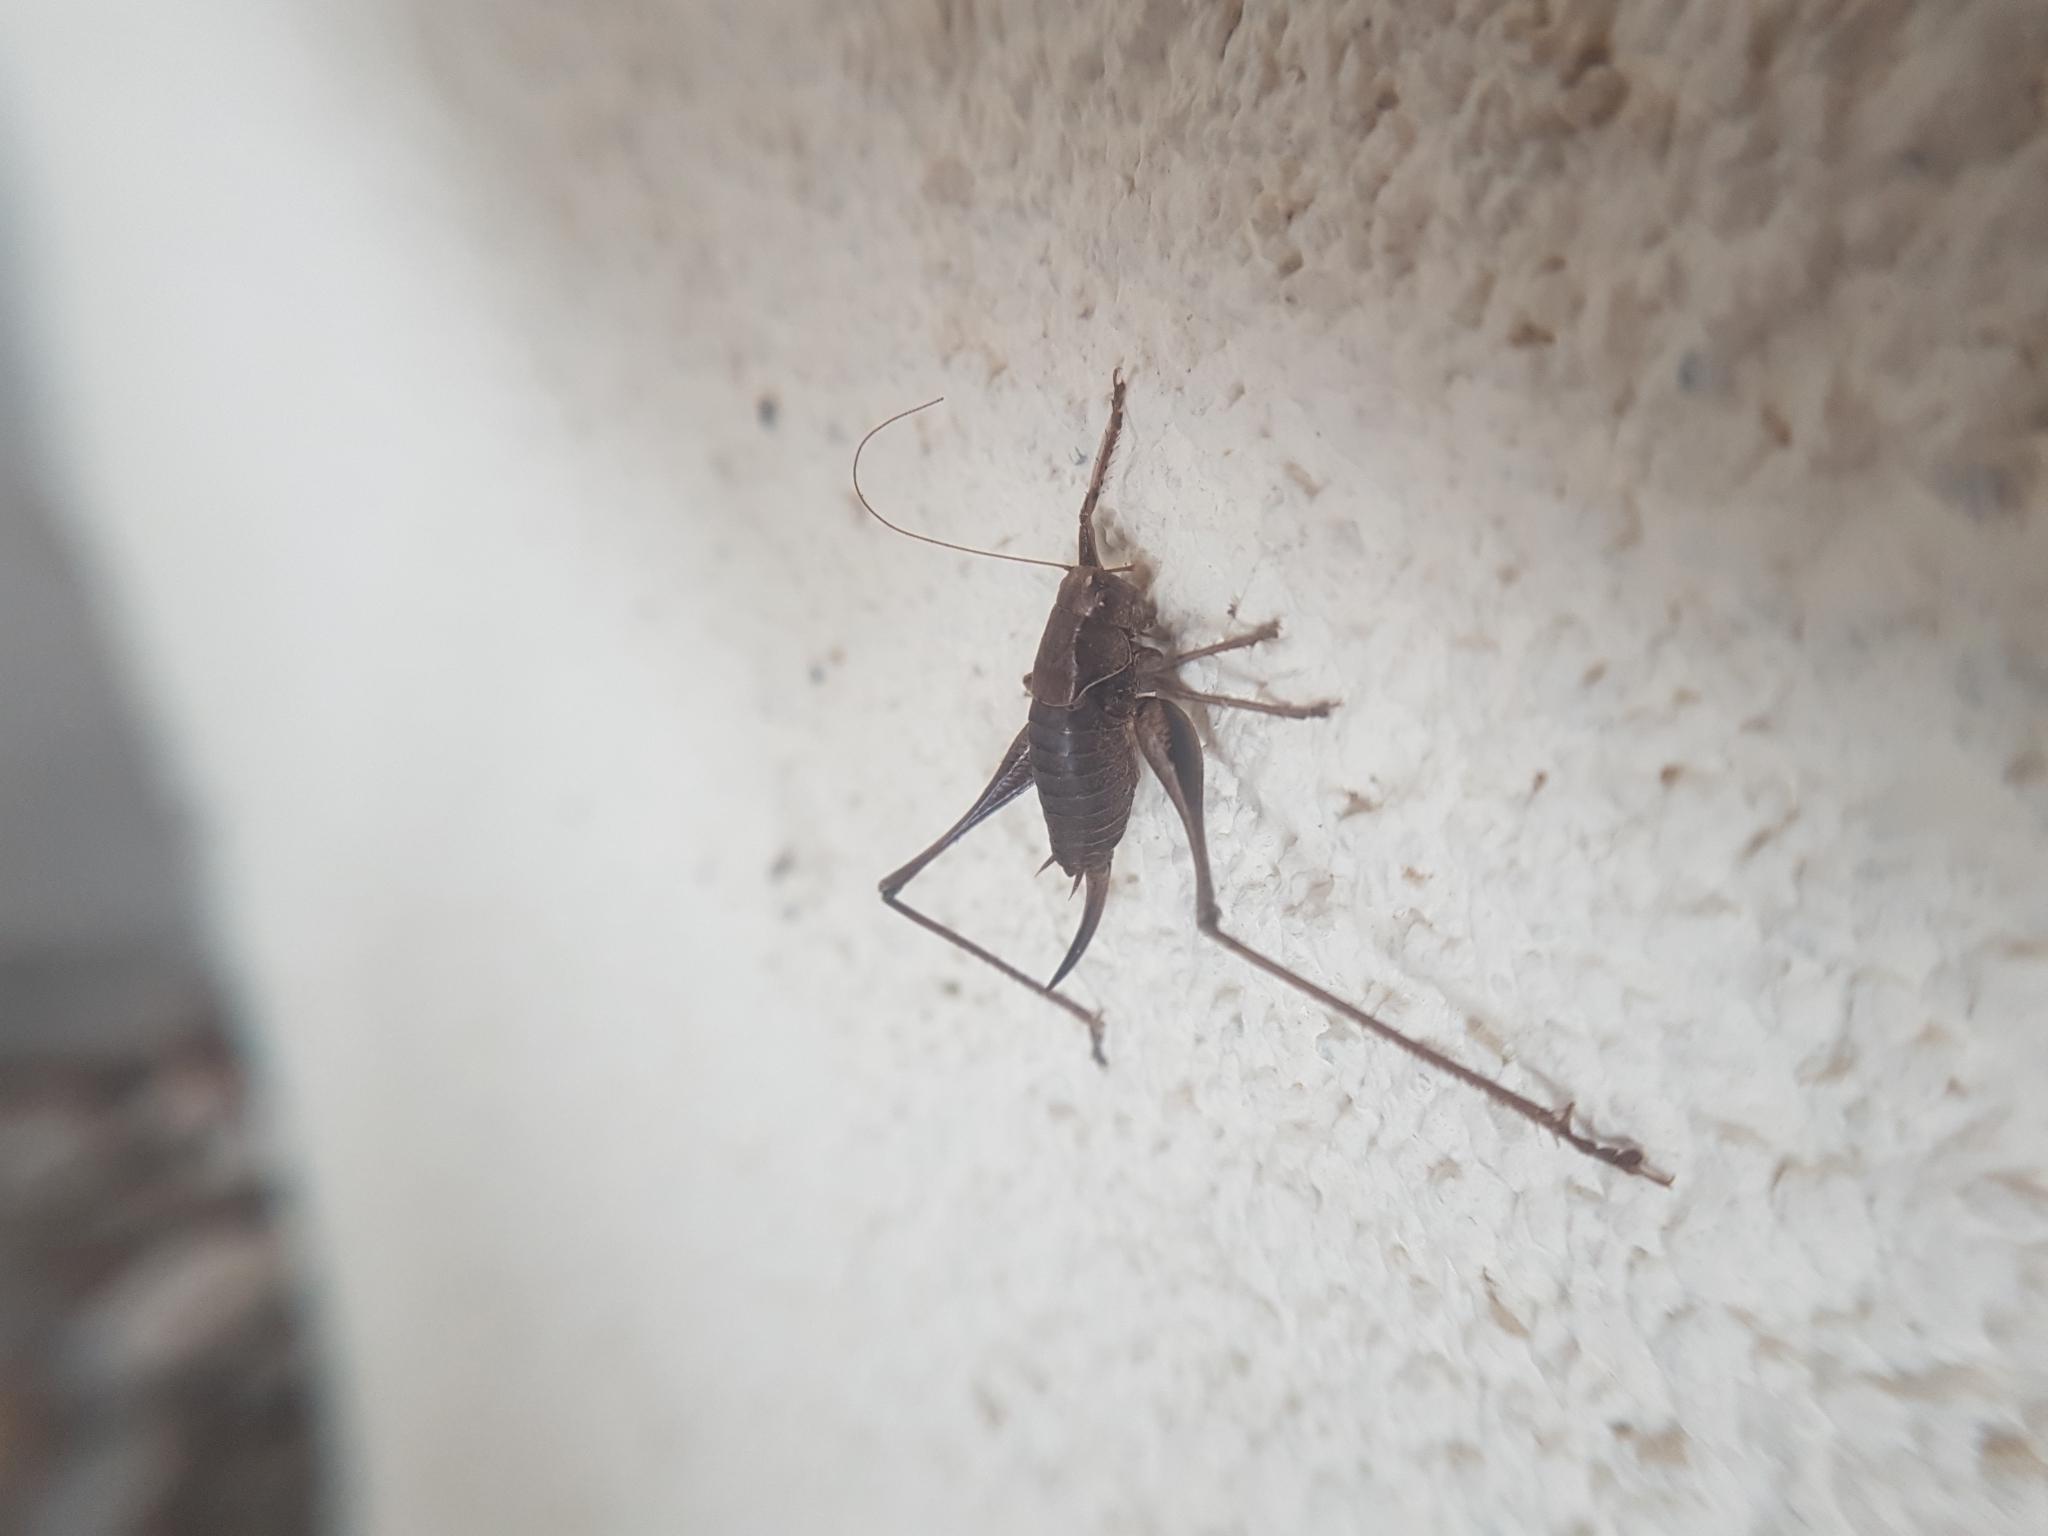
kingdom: Animalia
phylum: Arthropoda
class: Insecta
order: Orthoptera
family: Tettigoniidae
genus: Pholidoptera
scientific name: Pholidoptera griseoaptera
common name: Dark bush-cricket
